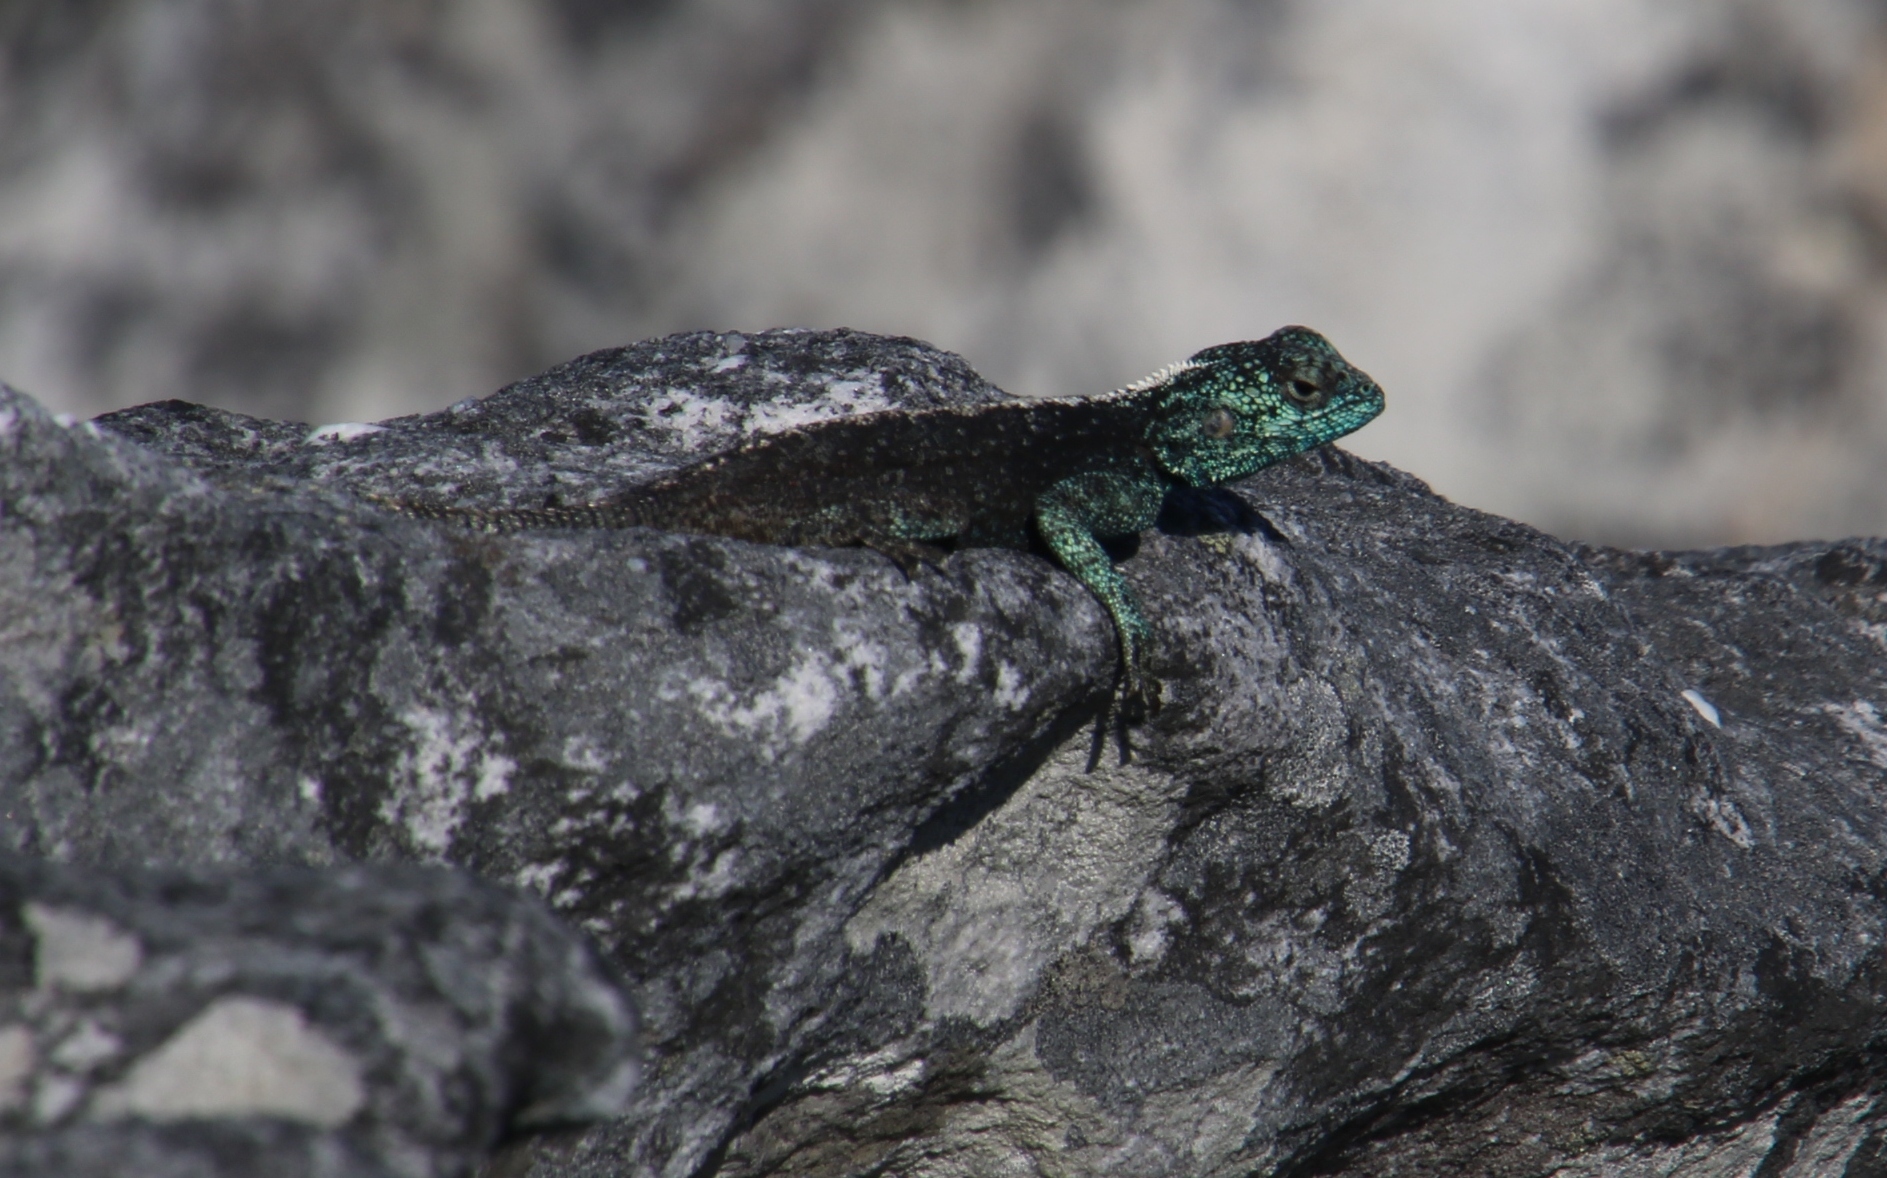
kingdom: Animalia
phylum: Chordata
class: Squamata
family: Agamidae
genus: Agama
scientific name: Agama atra
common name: Southern african rock agama
